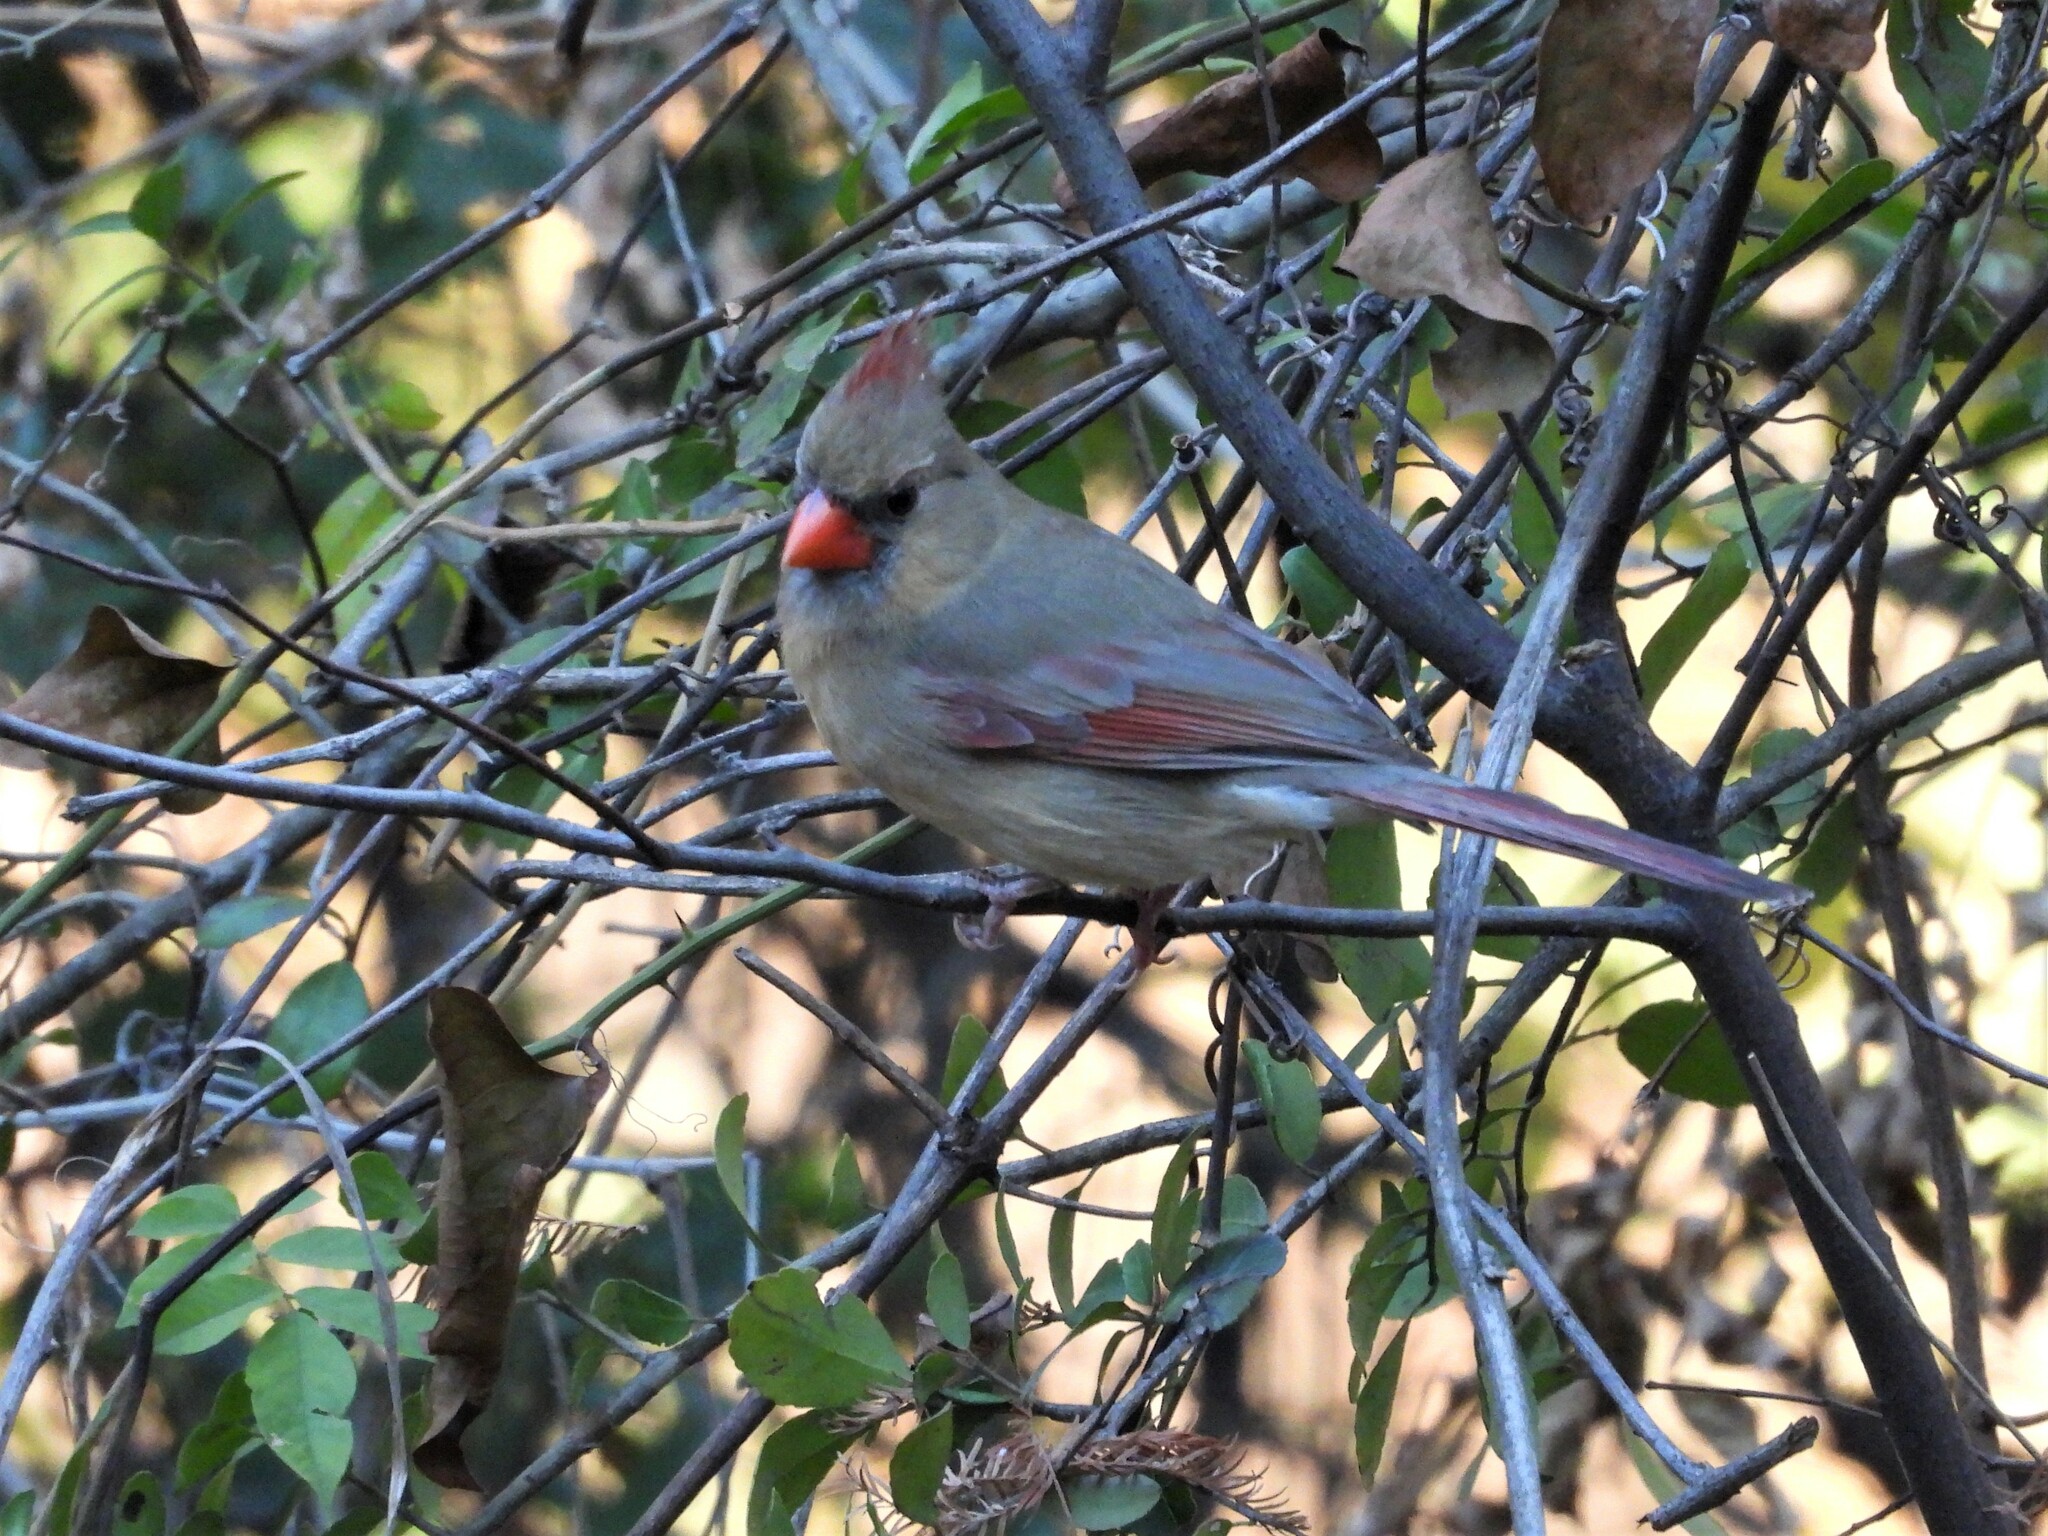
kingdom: Animalia
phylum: Chordata
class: Aves
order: Passeriformes
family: Cardinalidae
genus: Cardinalis
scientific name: Cardinalis cardinalis
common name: Northern cardinal
